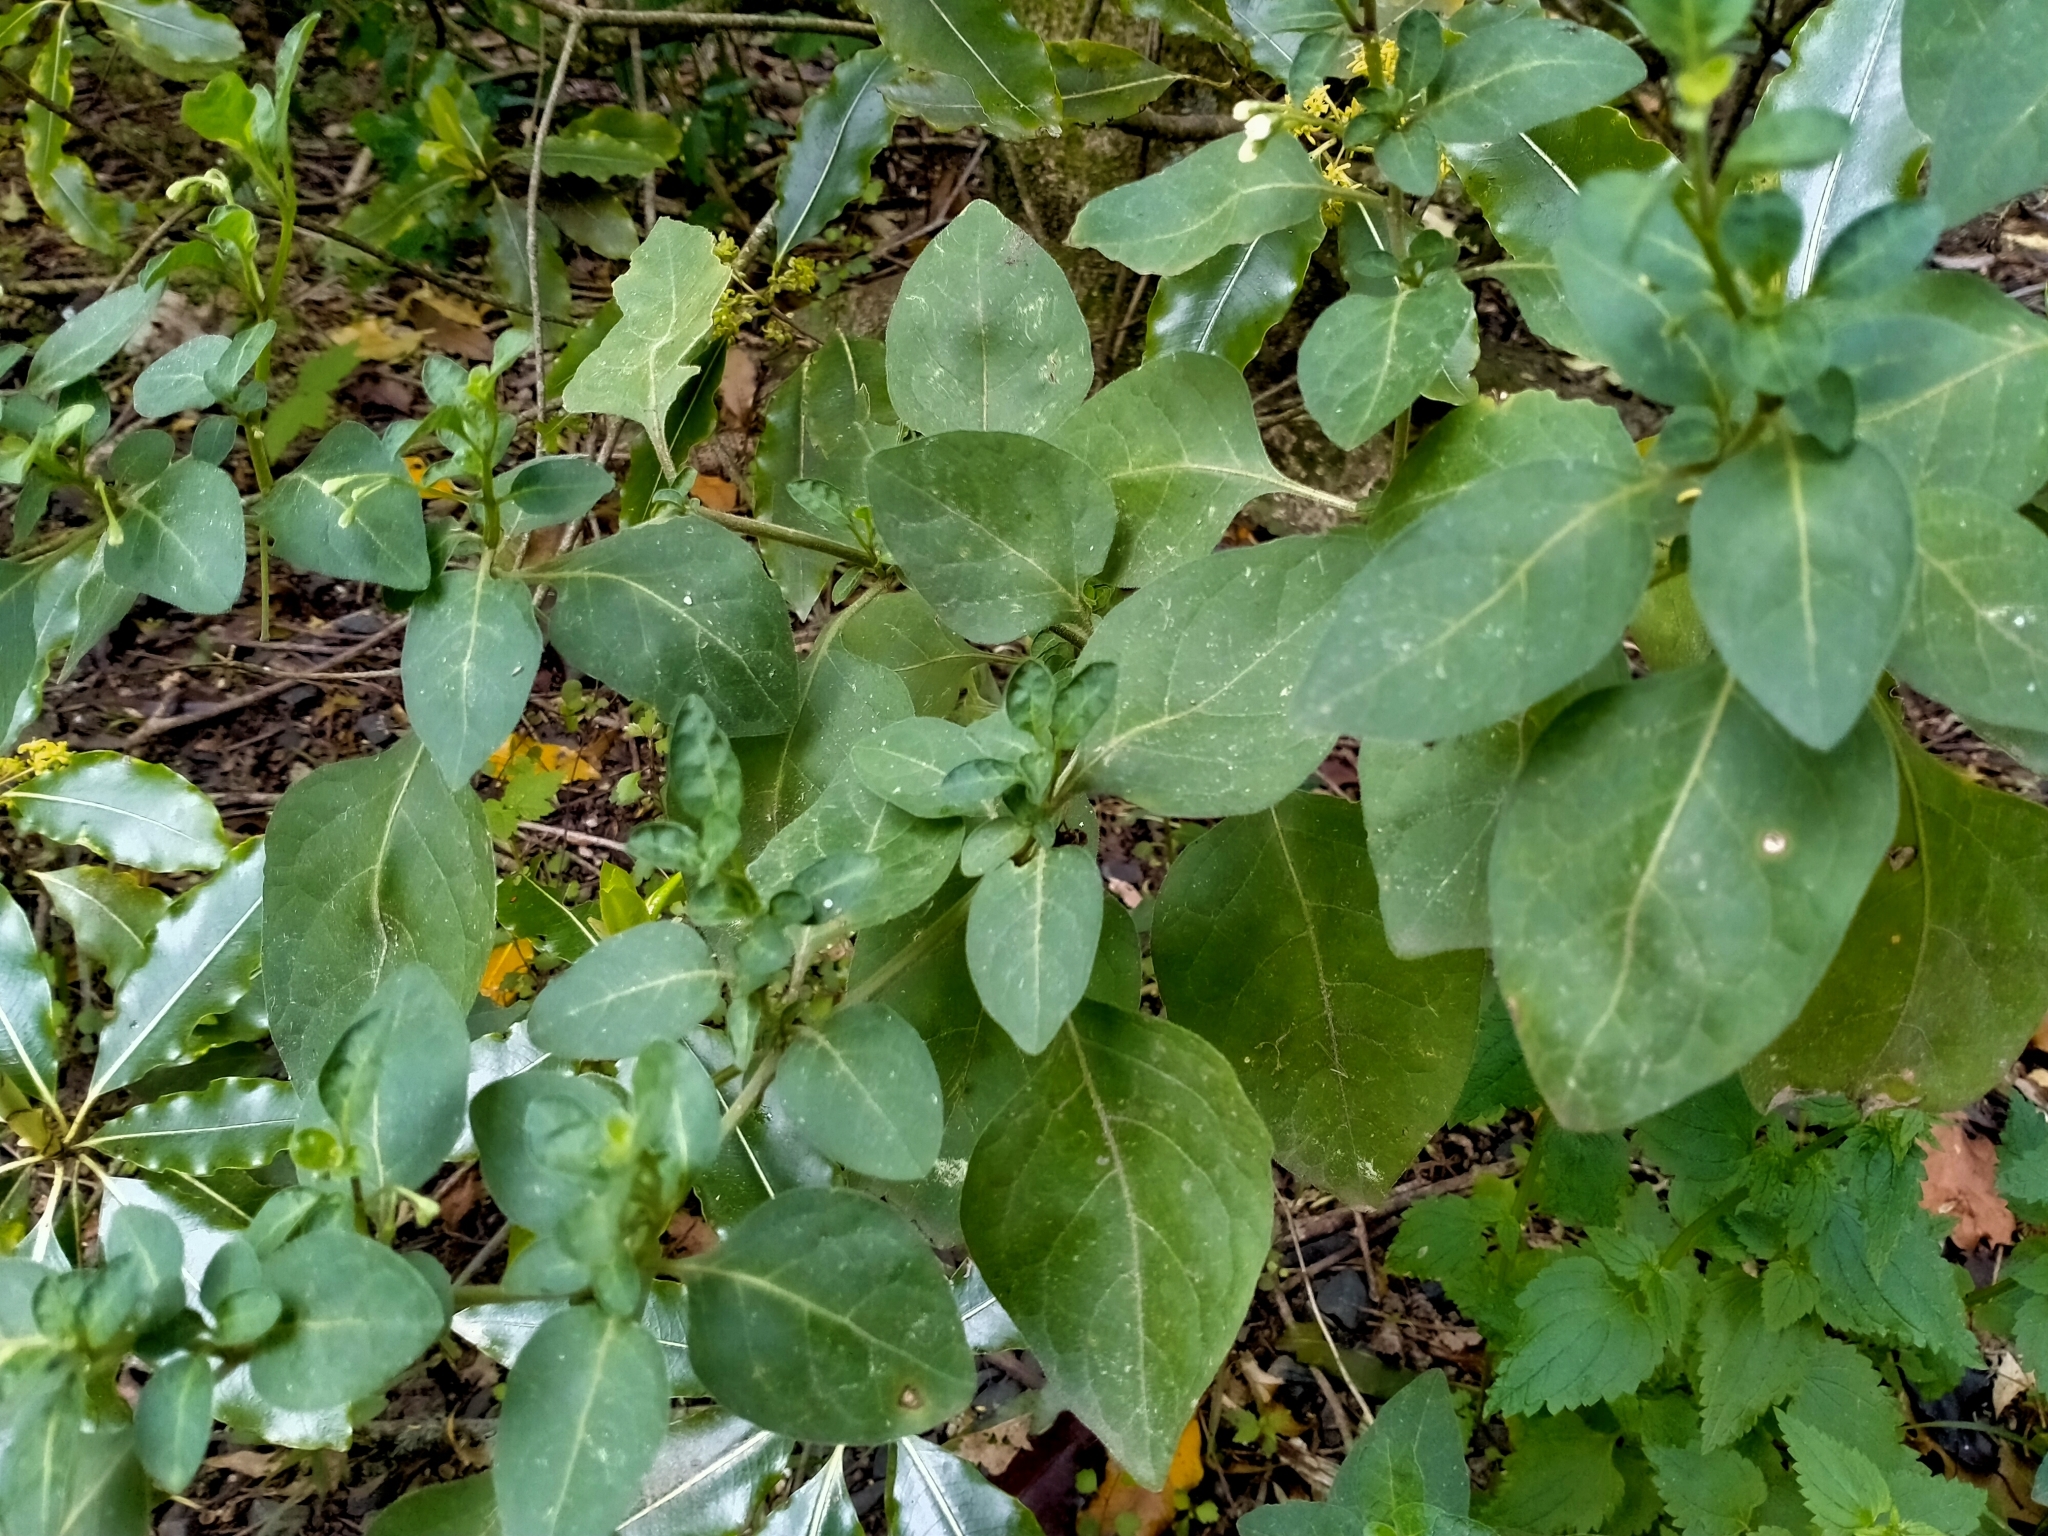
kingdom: Plantae
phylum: Tracheophyta
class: Magnoliopsida
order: Solanales
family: Solanaceae
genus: Solanum
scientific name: Solanum chenopodioides
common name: Tall nightshade
